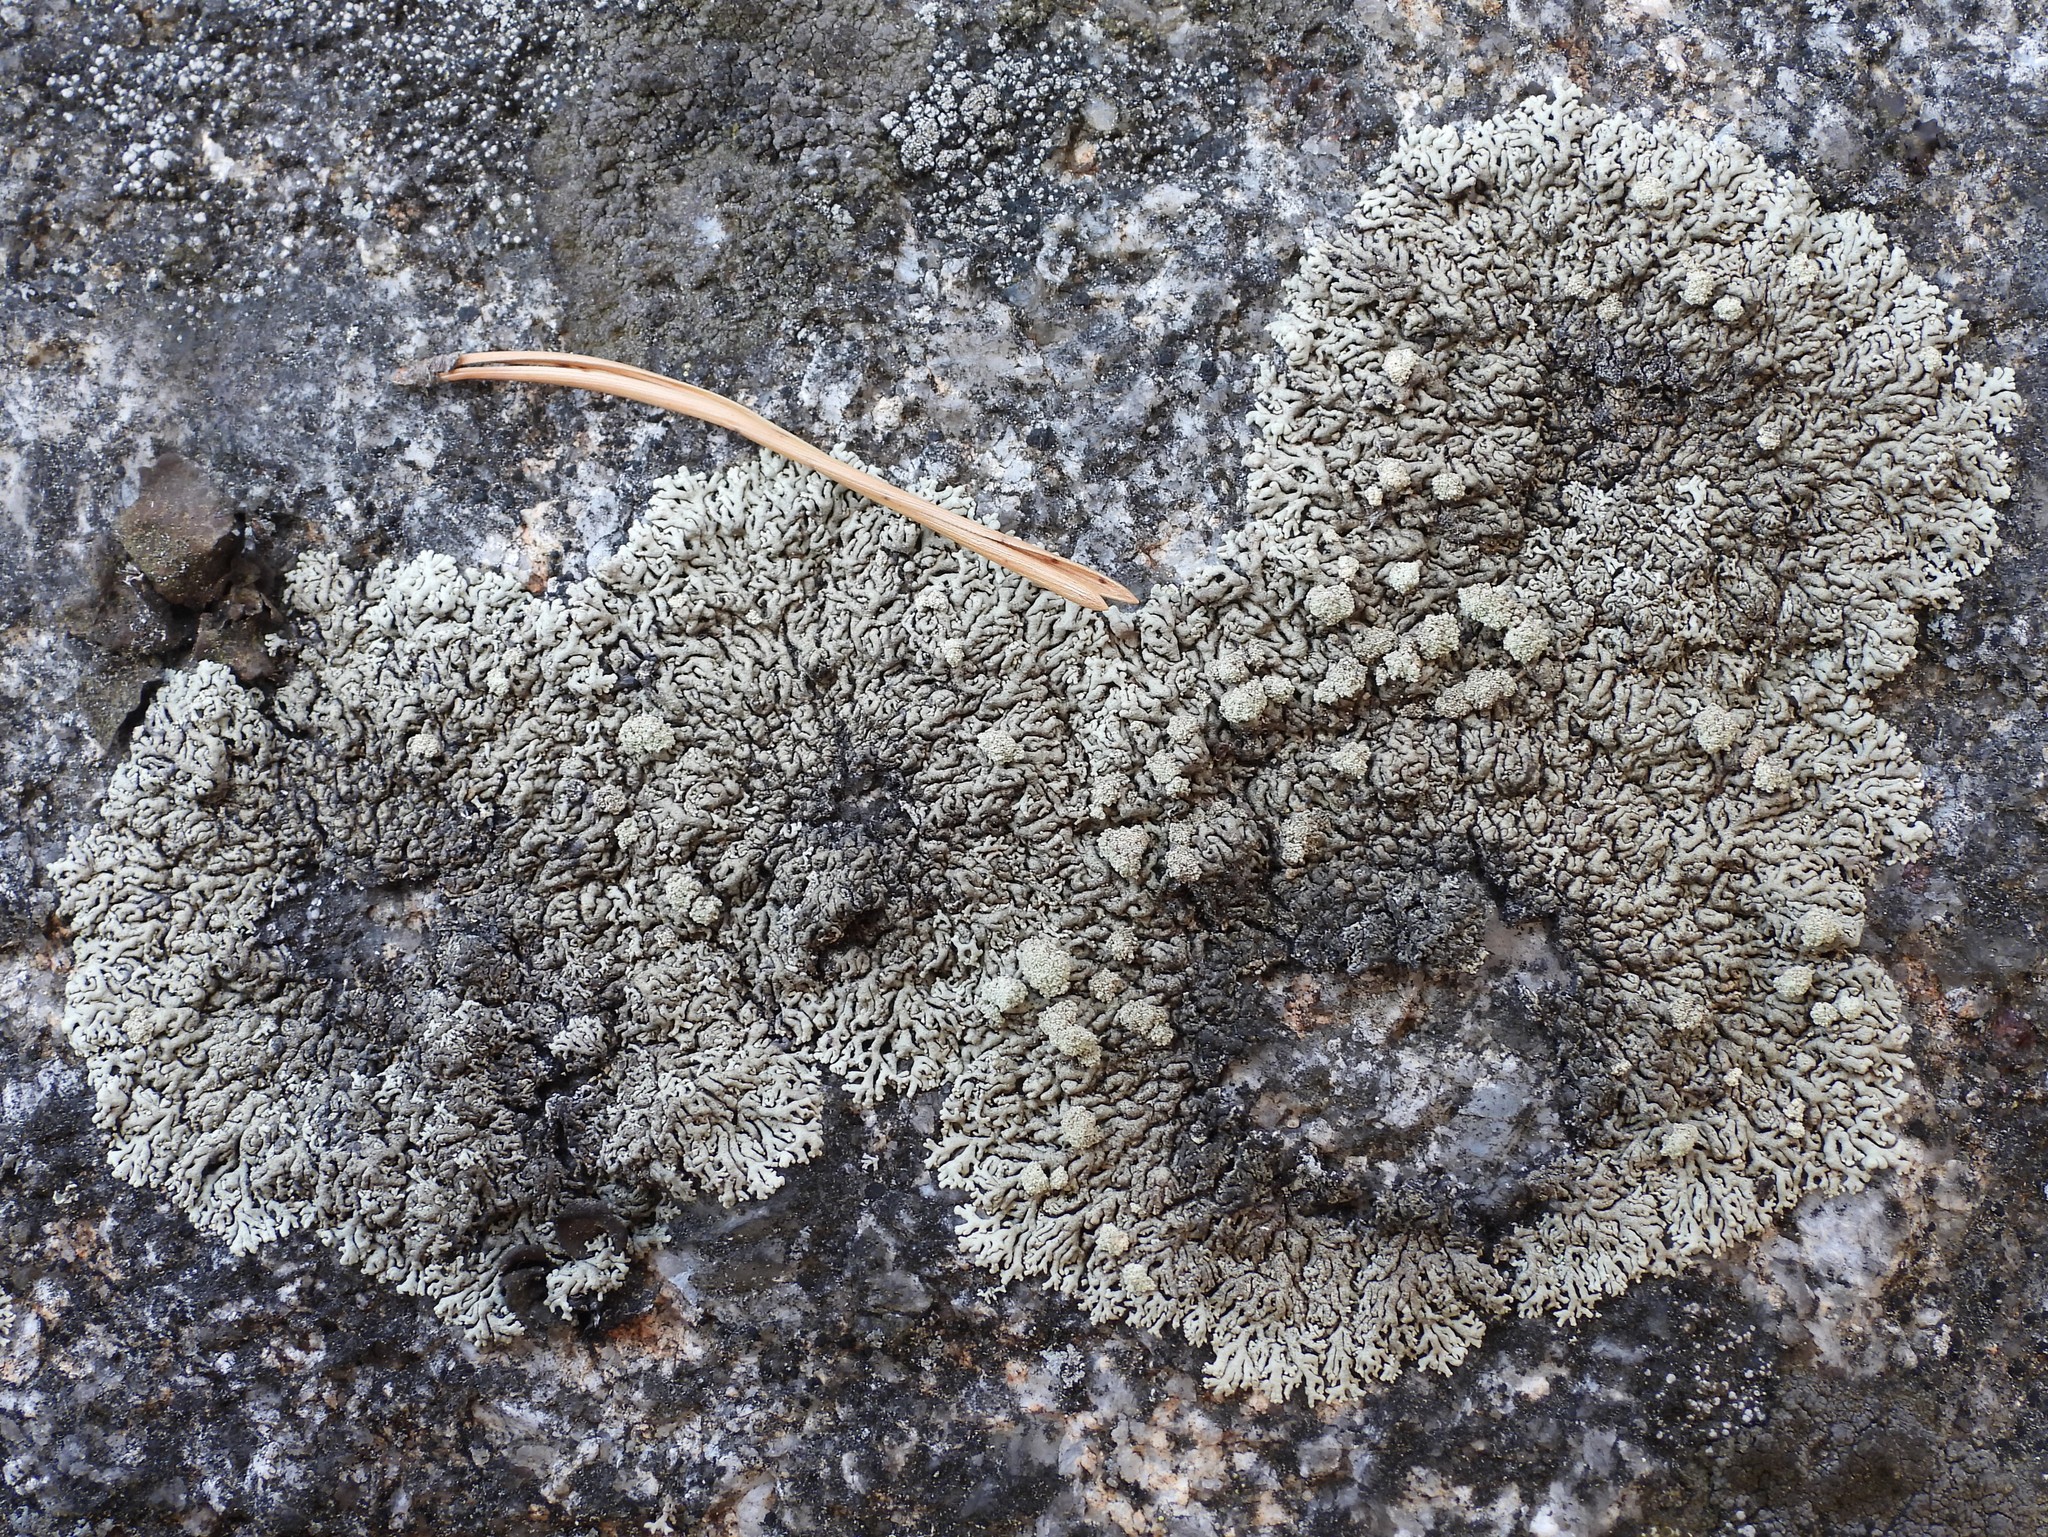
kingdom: Fungi
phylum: Ascomycota
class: Lecanoromycetes
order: Lecanorales
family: Parmeliaceae
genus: Arctoparmelia
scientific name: Arctoparmelia incurva
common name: Bent ring lichen
